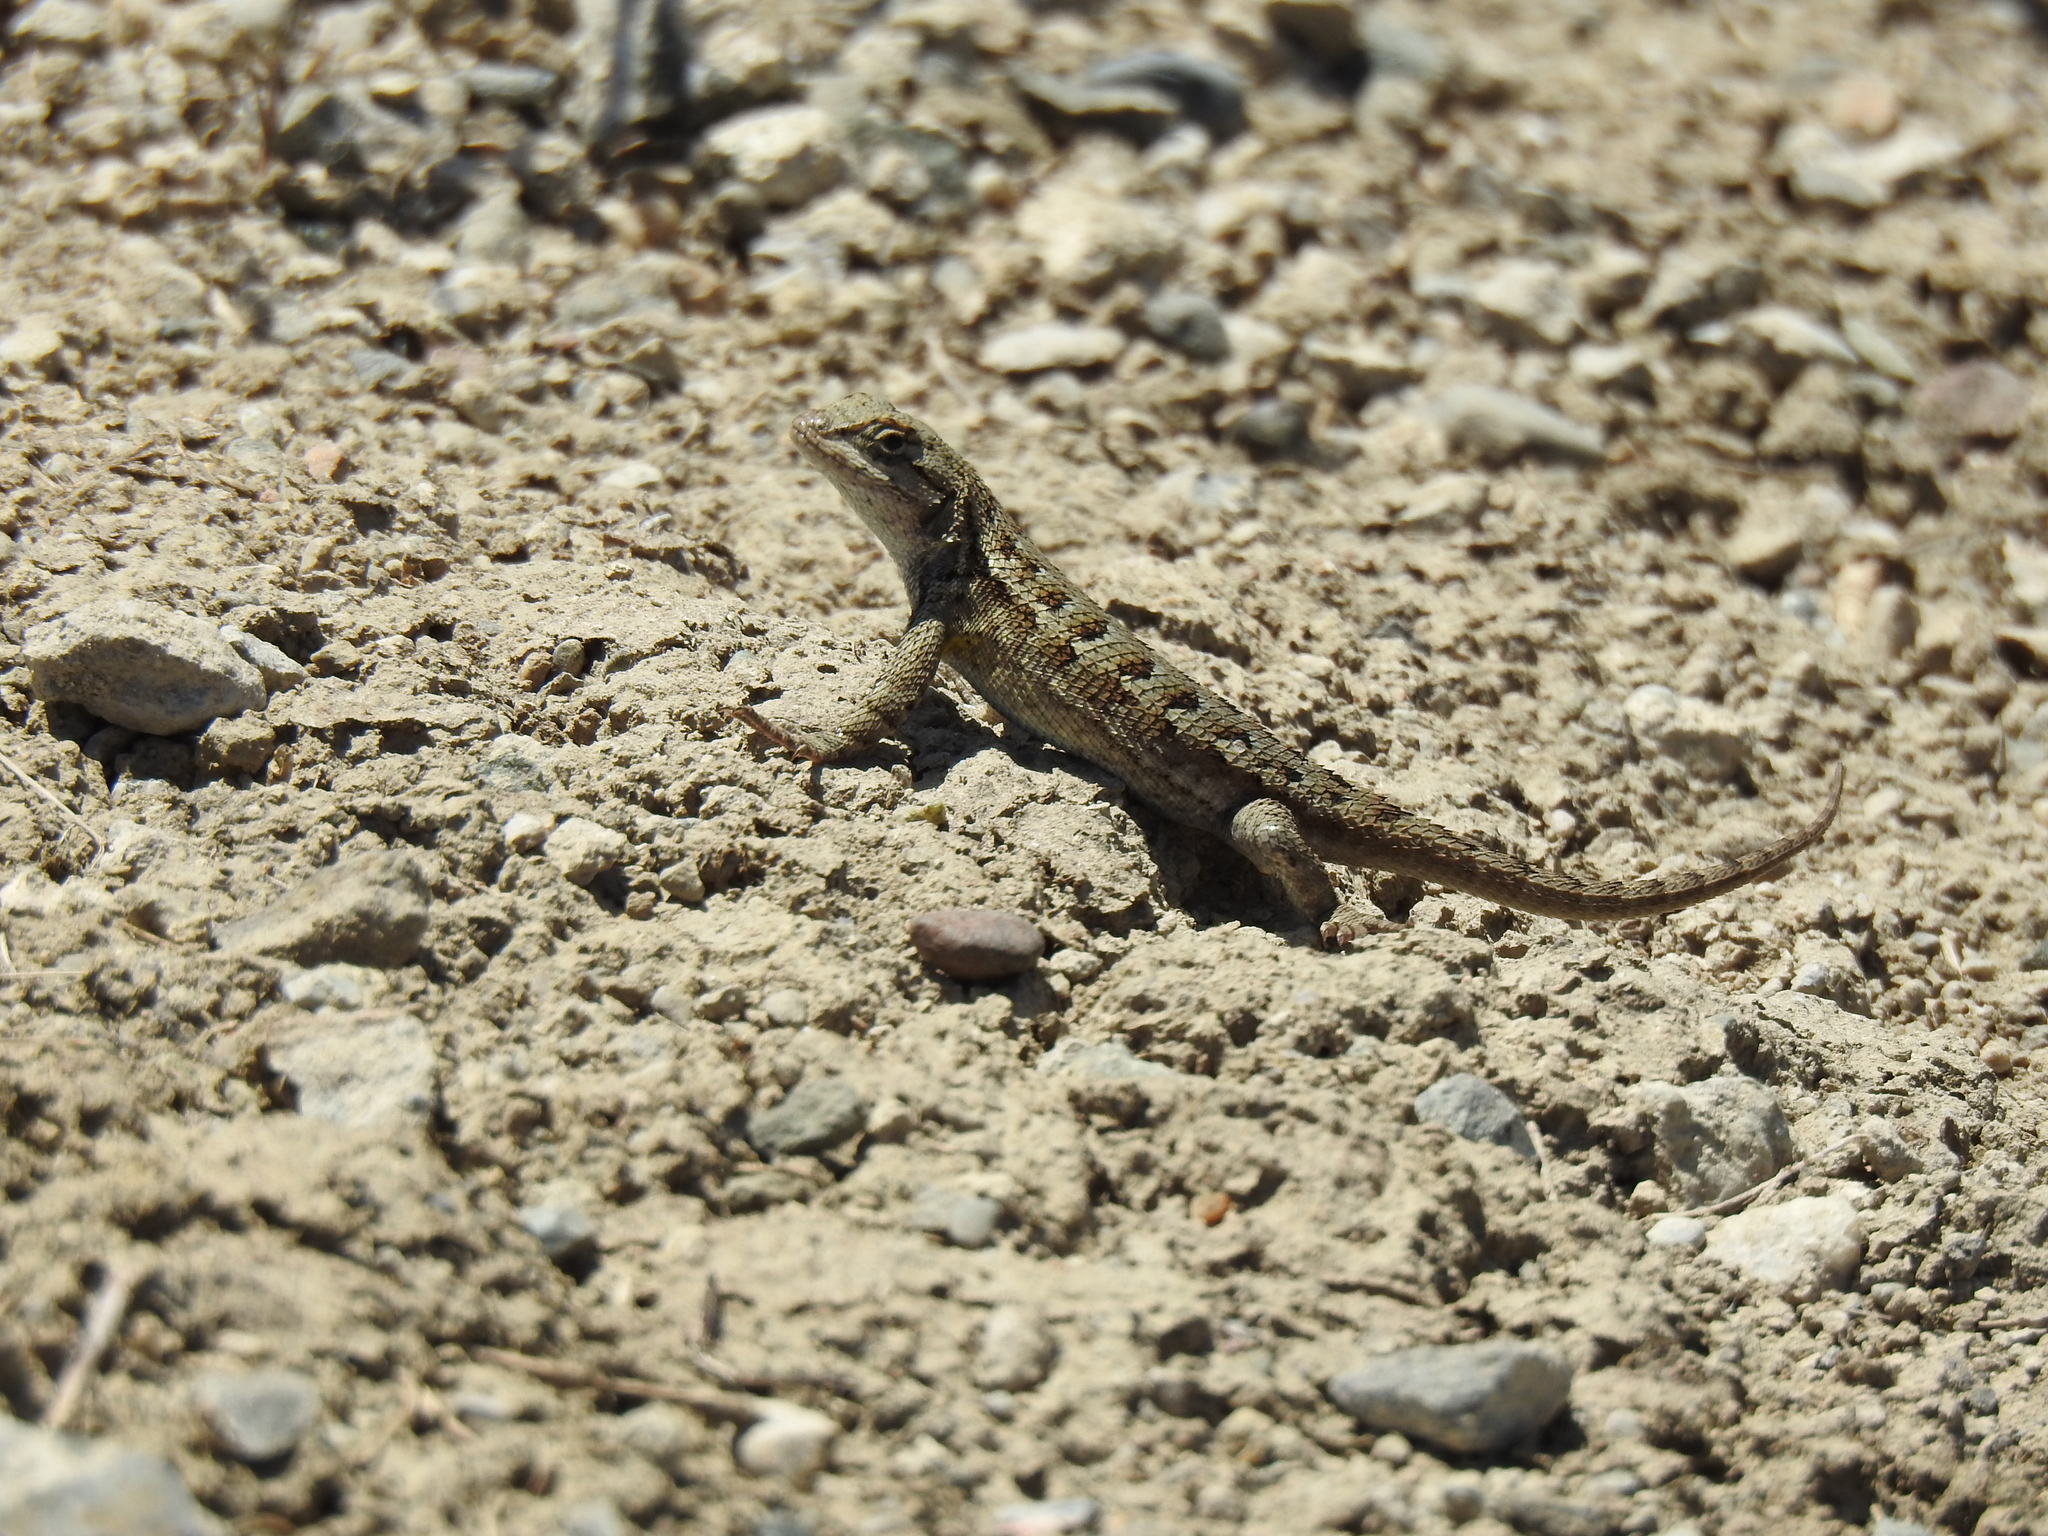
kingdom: Animalia
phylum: Chordata
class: Squamata
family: Phrynosomatidae
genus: Sceloporus
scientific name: Sceloporus occidentalis
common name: Western fence lizard
